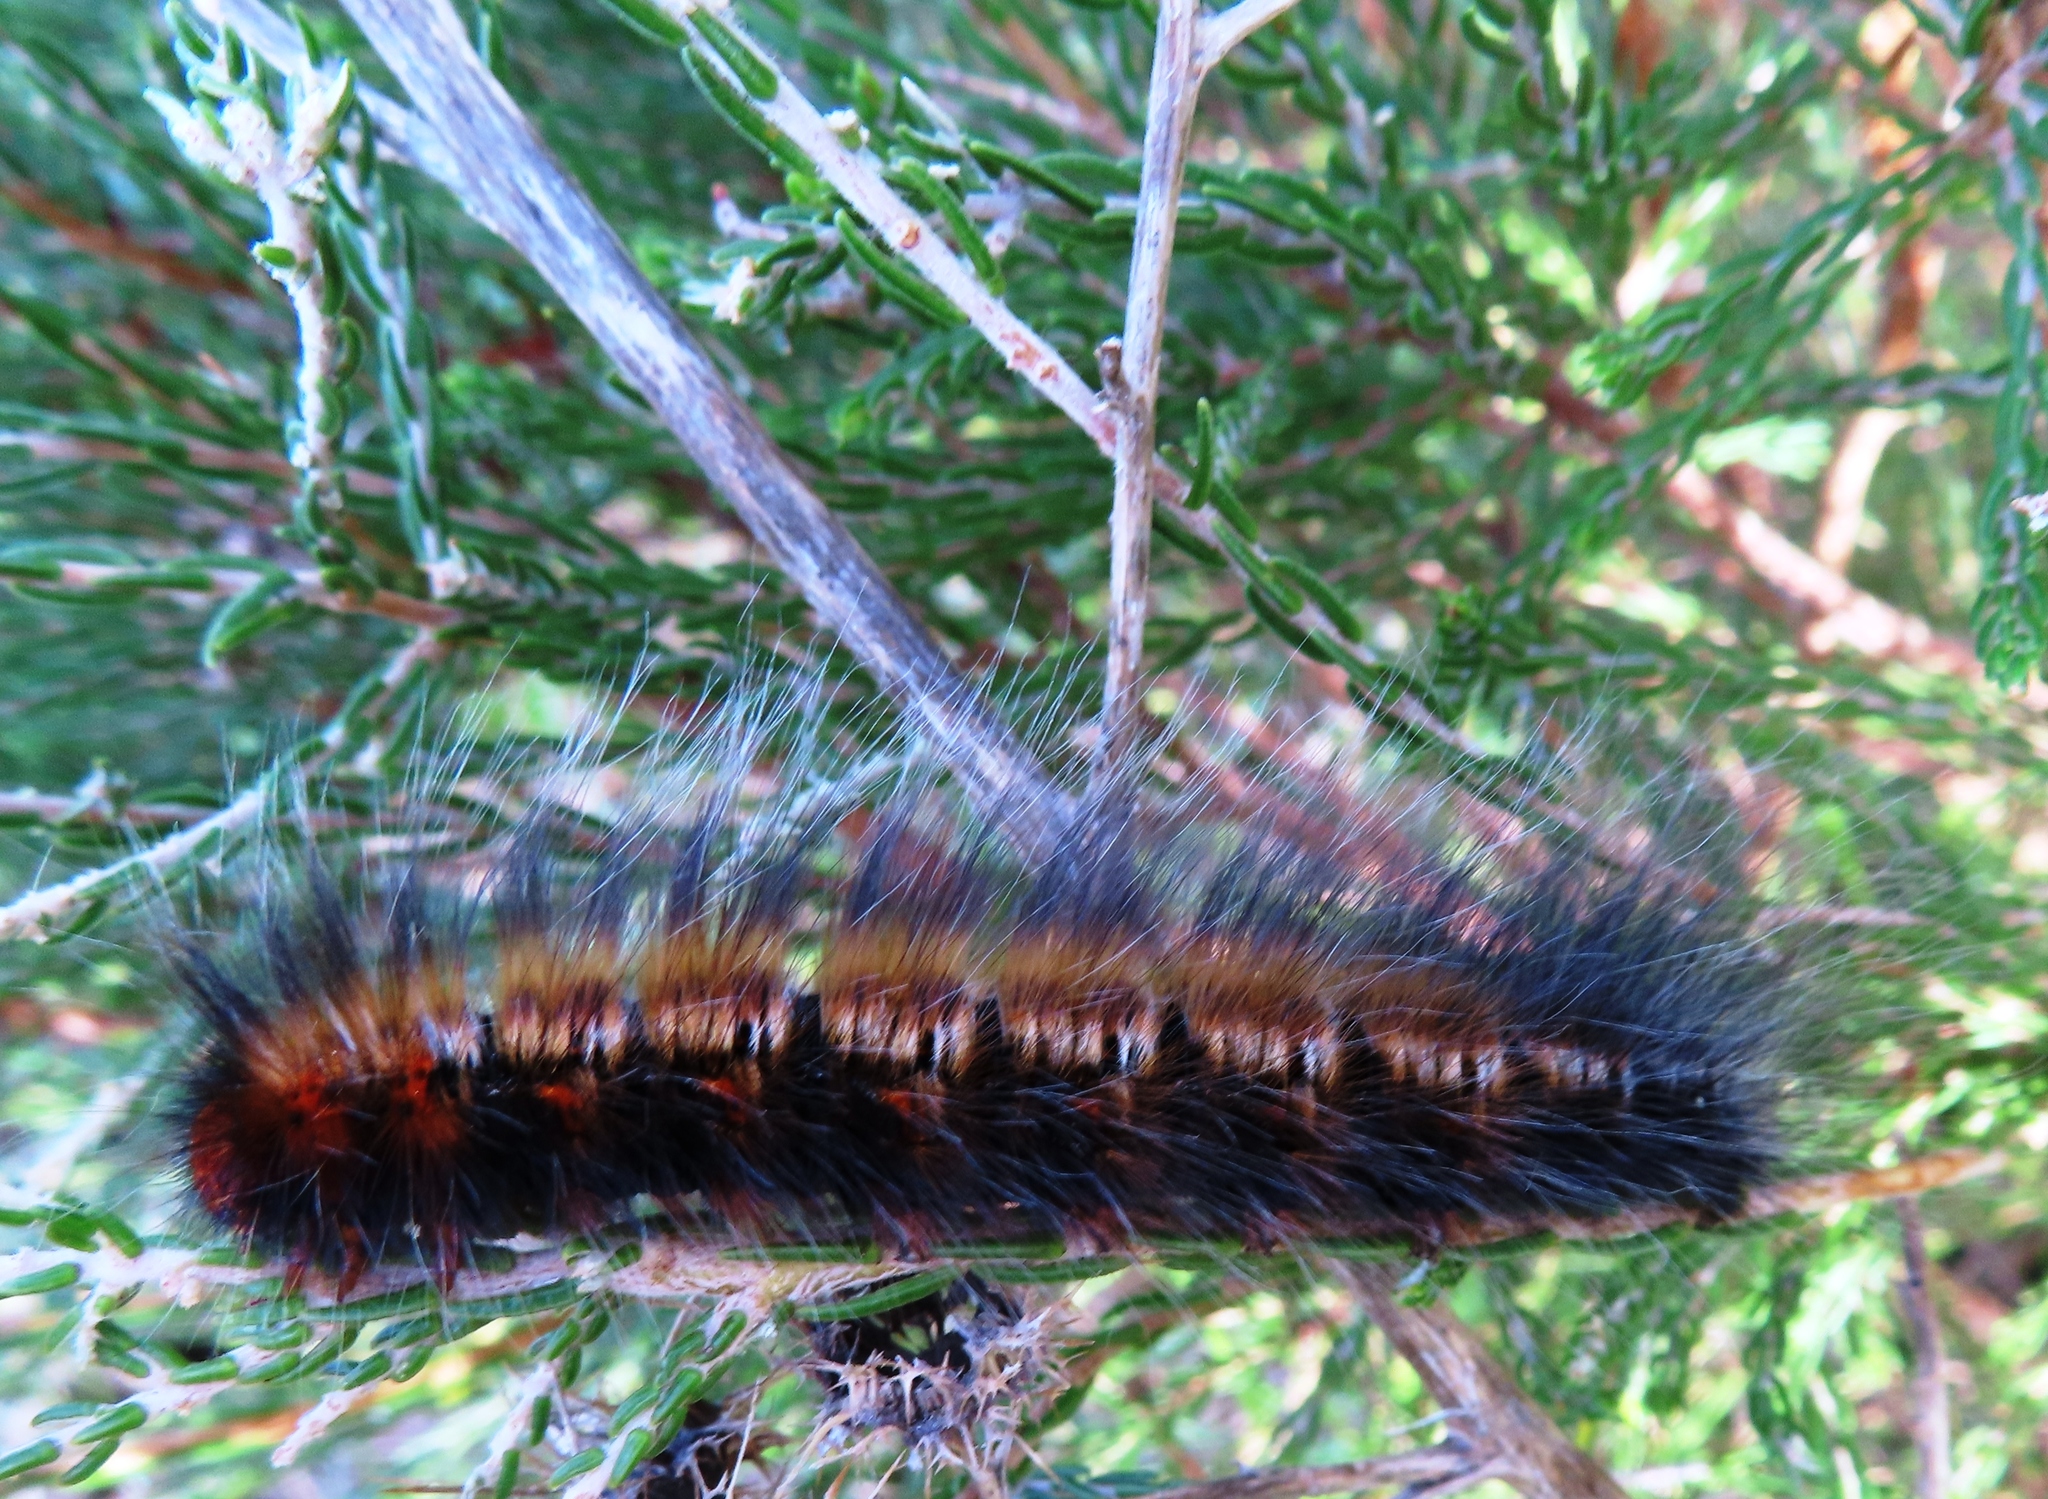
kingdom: Animalia
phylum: Arthropoda
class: Insecta
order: Lepidoptera
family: Lasiocampidae
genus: Mesocelis
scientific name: Mesocelis monticola
